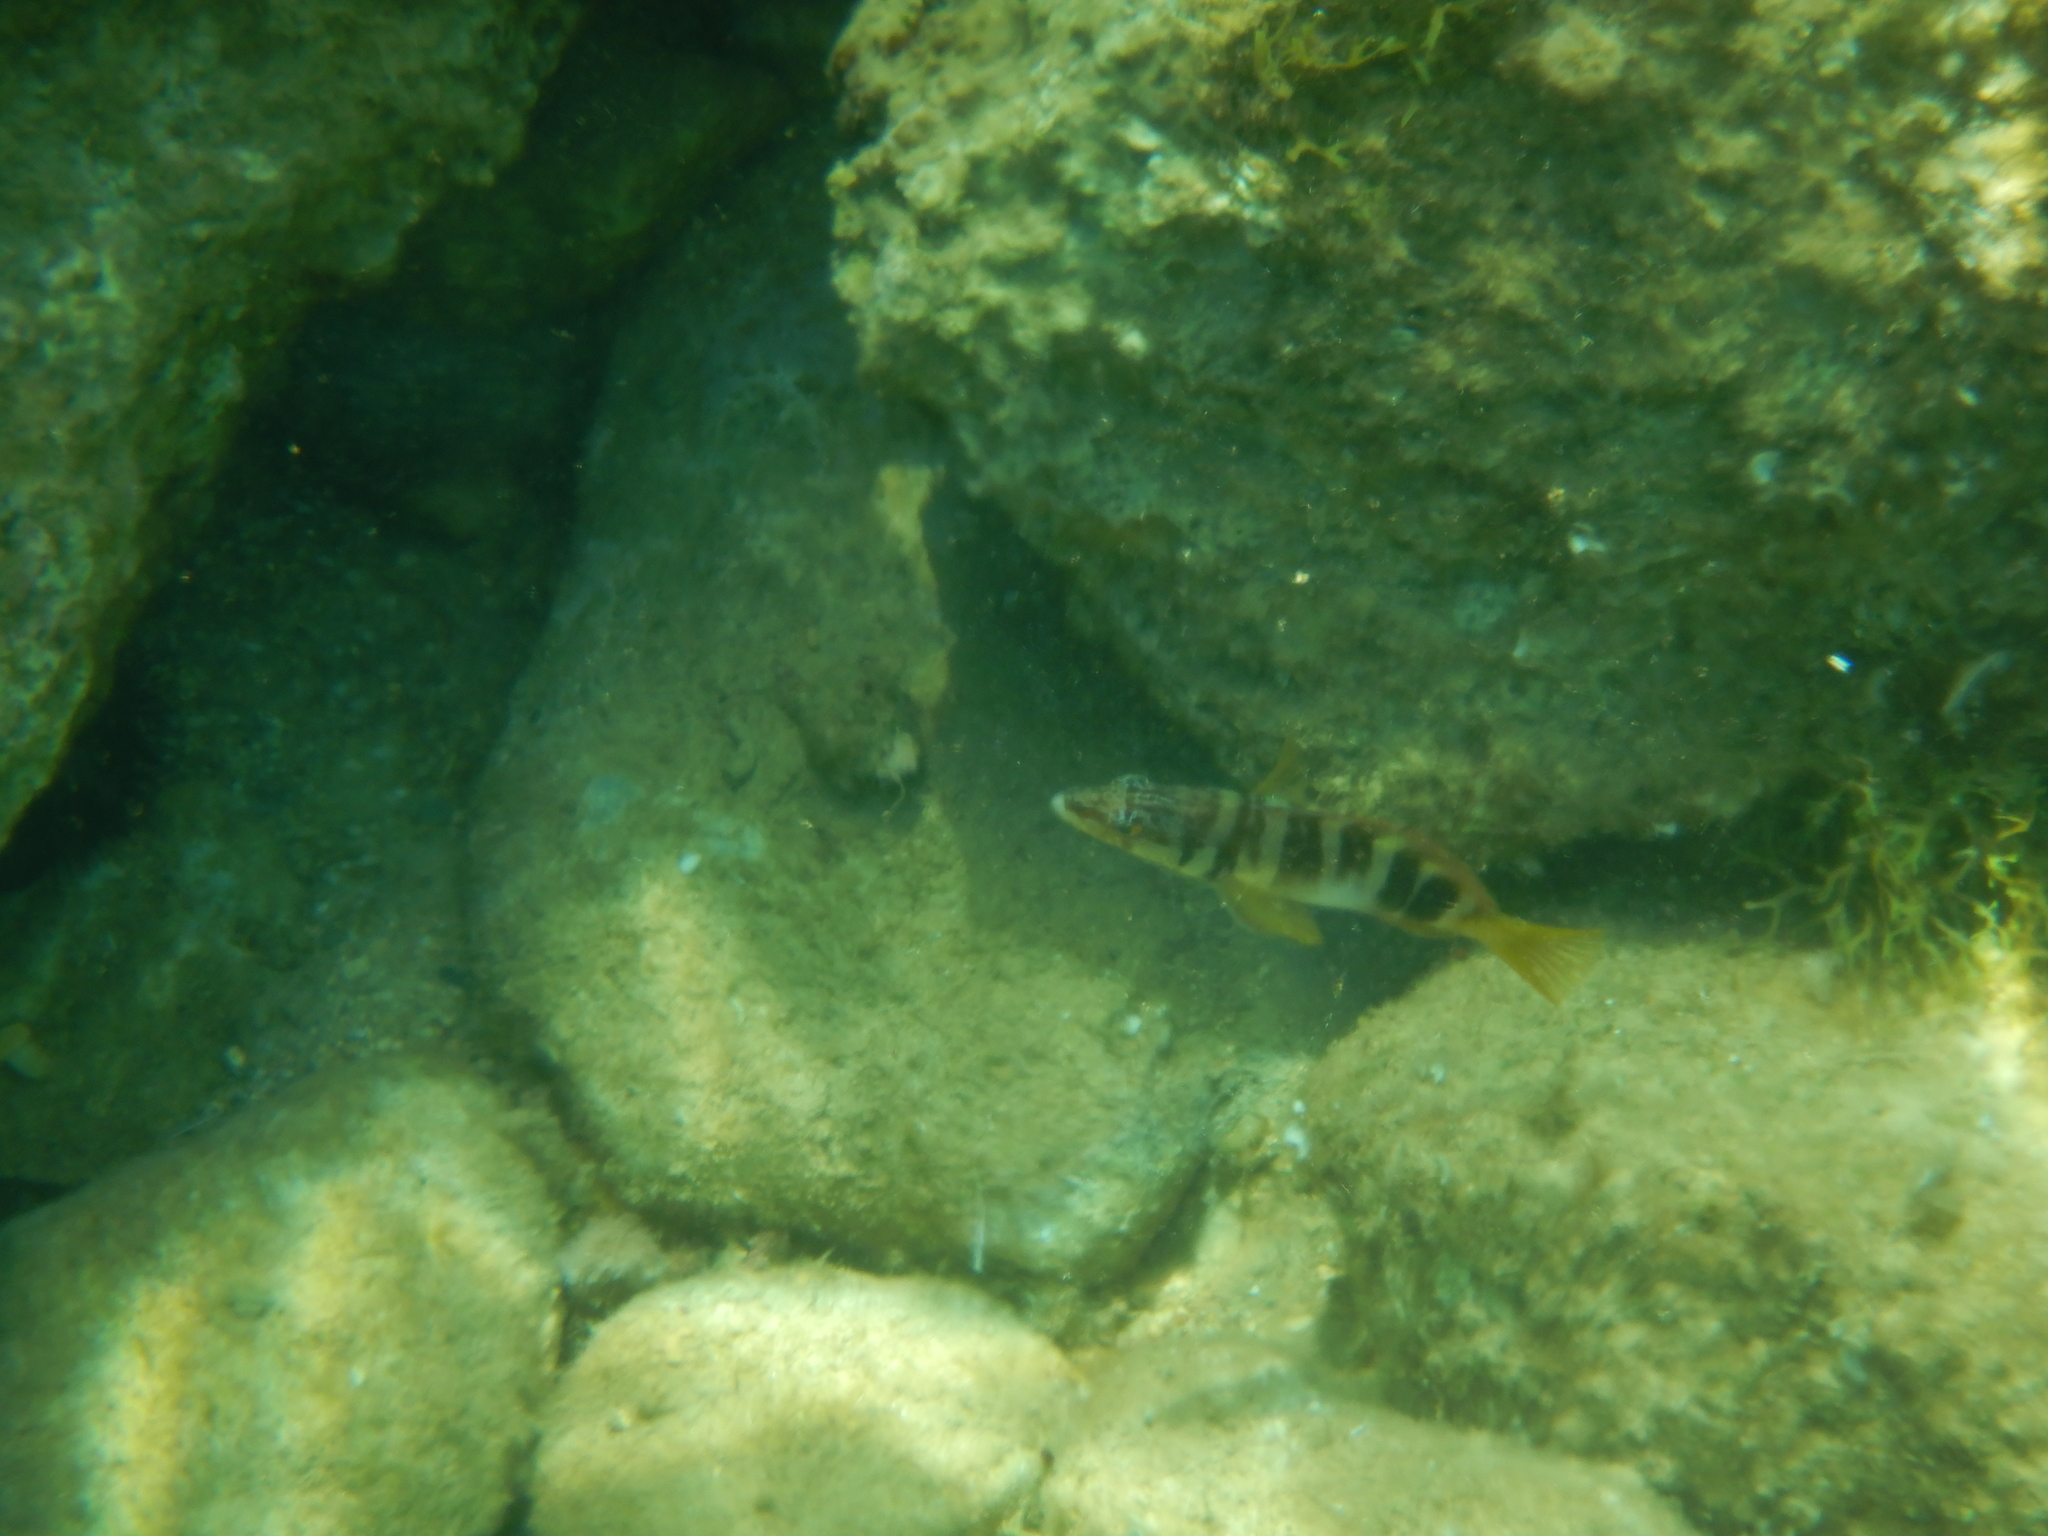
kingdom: Animalia
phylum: Chordata
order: Perciformes
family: Serranidae
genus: Serranus
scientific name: Serranus scriba
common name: Painted comber
